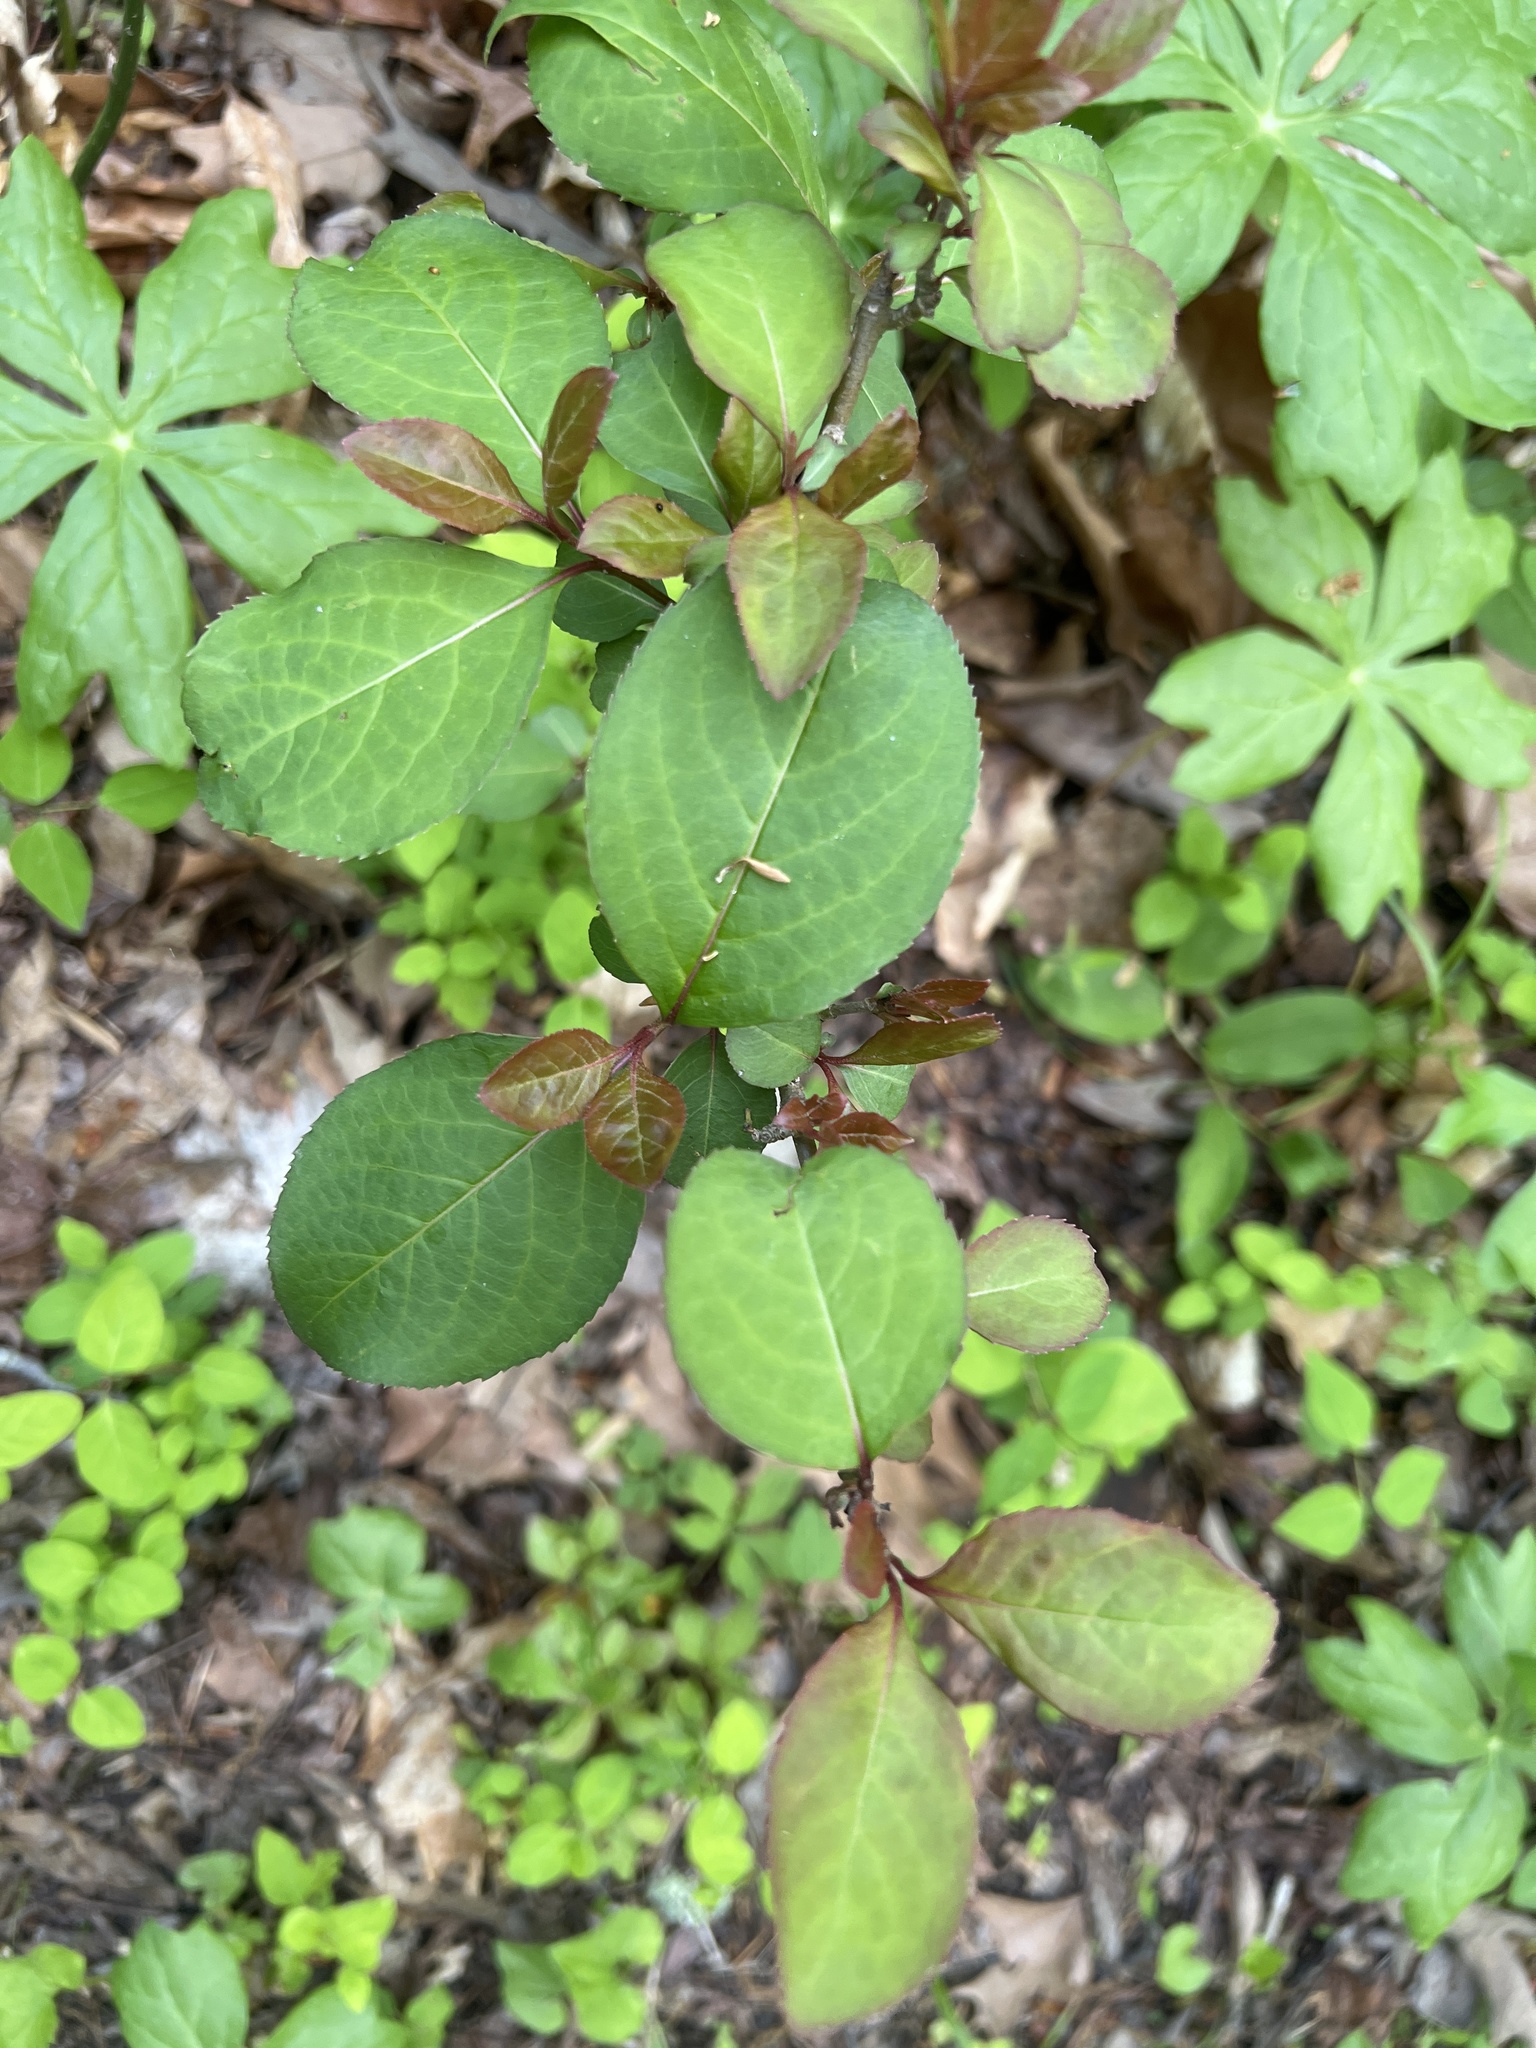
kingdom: Plantae
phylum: Tracheophyta
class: Magnoliopsida
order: Dipsacales
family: Viburnaceae
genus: Viburnum
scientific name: Viburnum prunifolium
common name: Black haw
